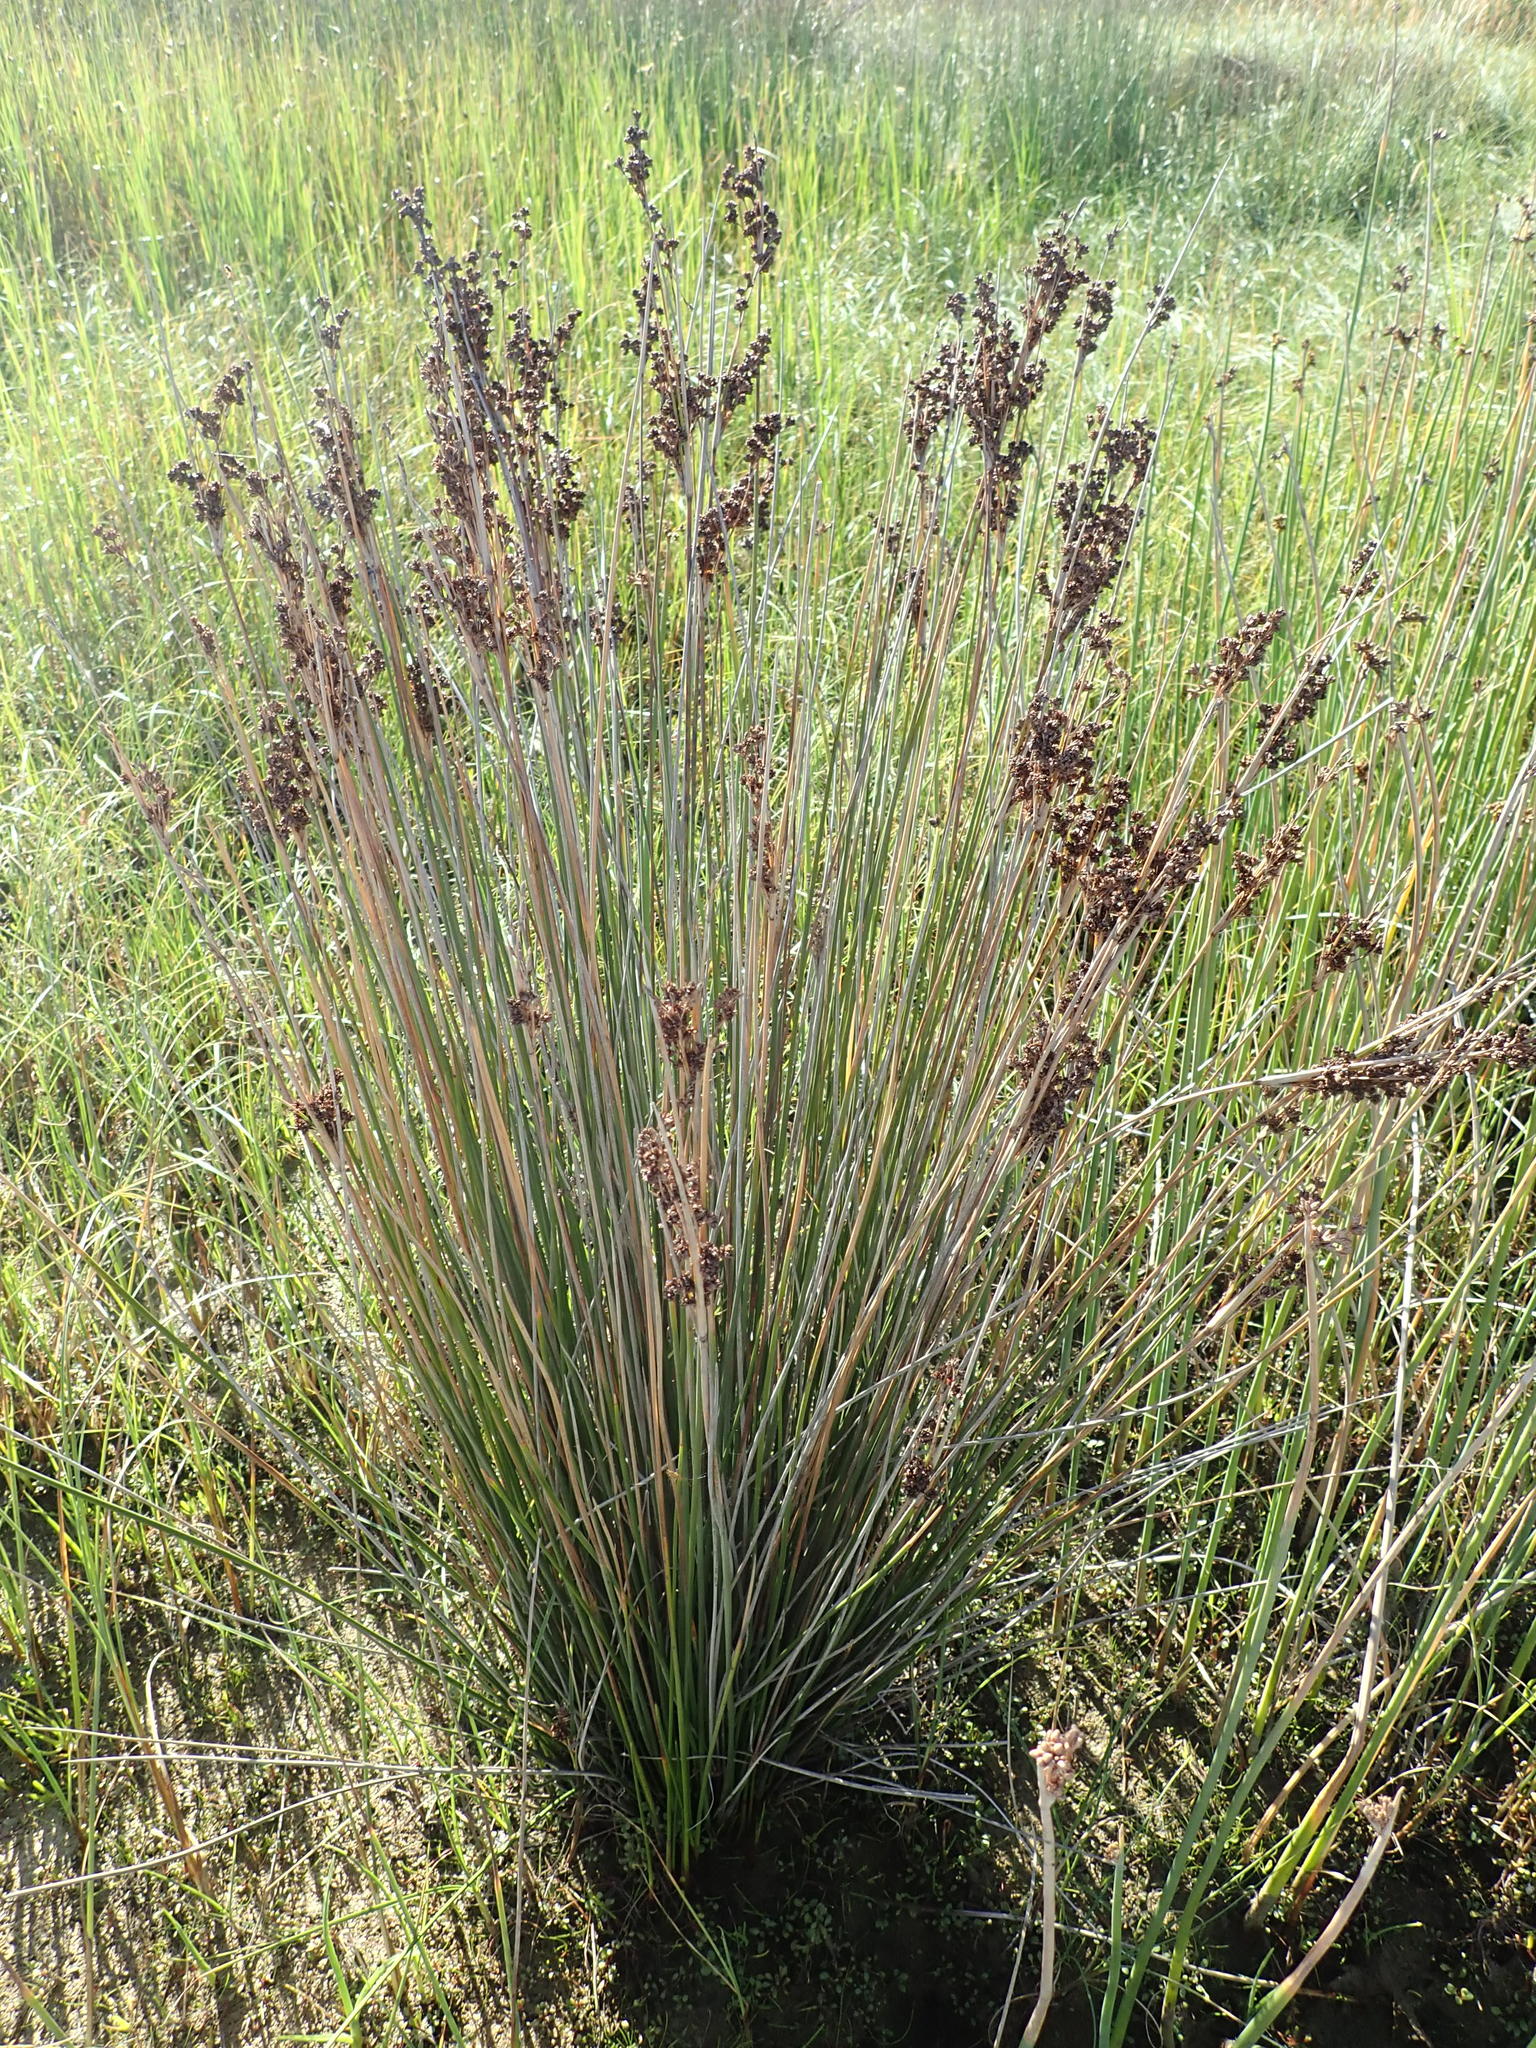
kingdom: Plantae
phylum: Tracheophyta
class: Liliopsida
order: Poales
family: Juncaceae
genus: Juncus
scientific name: Juncus kraussii
